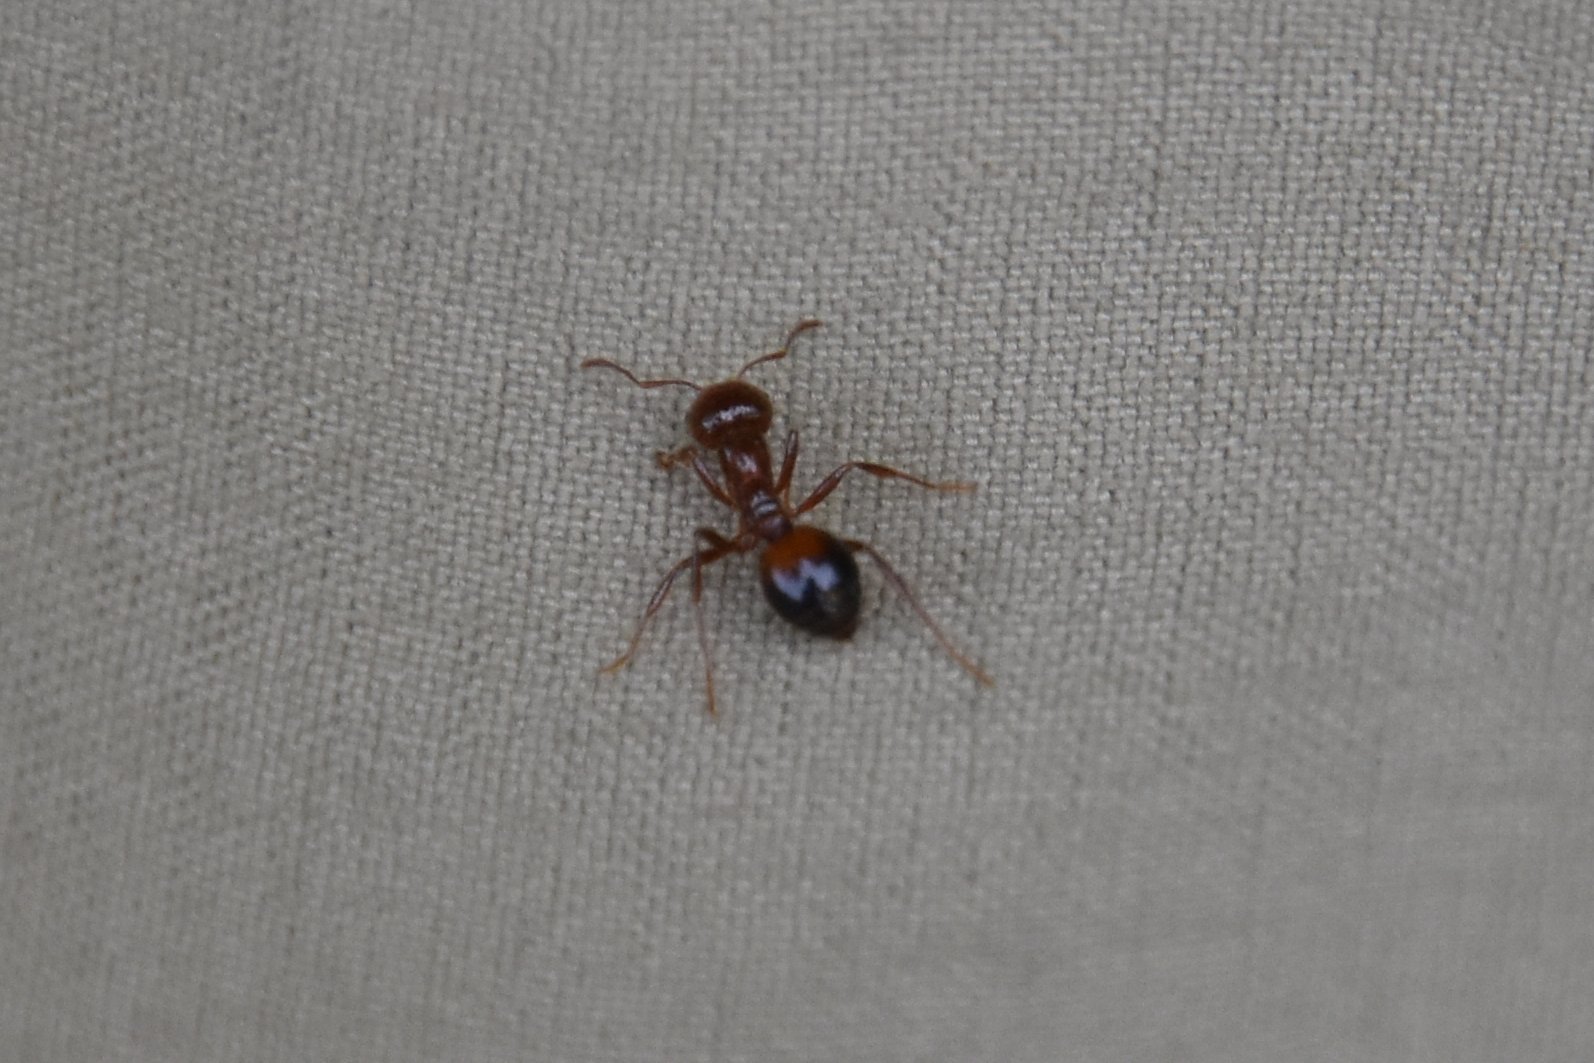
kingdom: Animalia
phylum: Arthropoda
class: Insecta
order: Hymenoptera
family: Formicidae
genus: Solenopsis
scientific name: Solenopsis invicta
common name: Red imported fire ant
